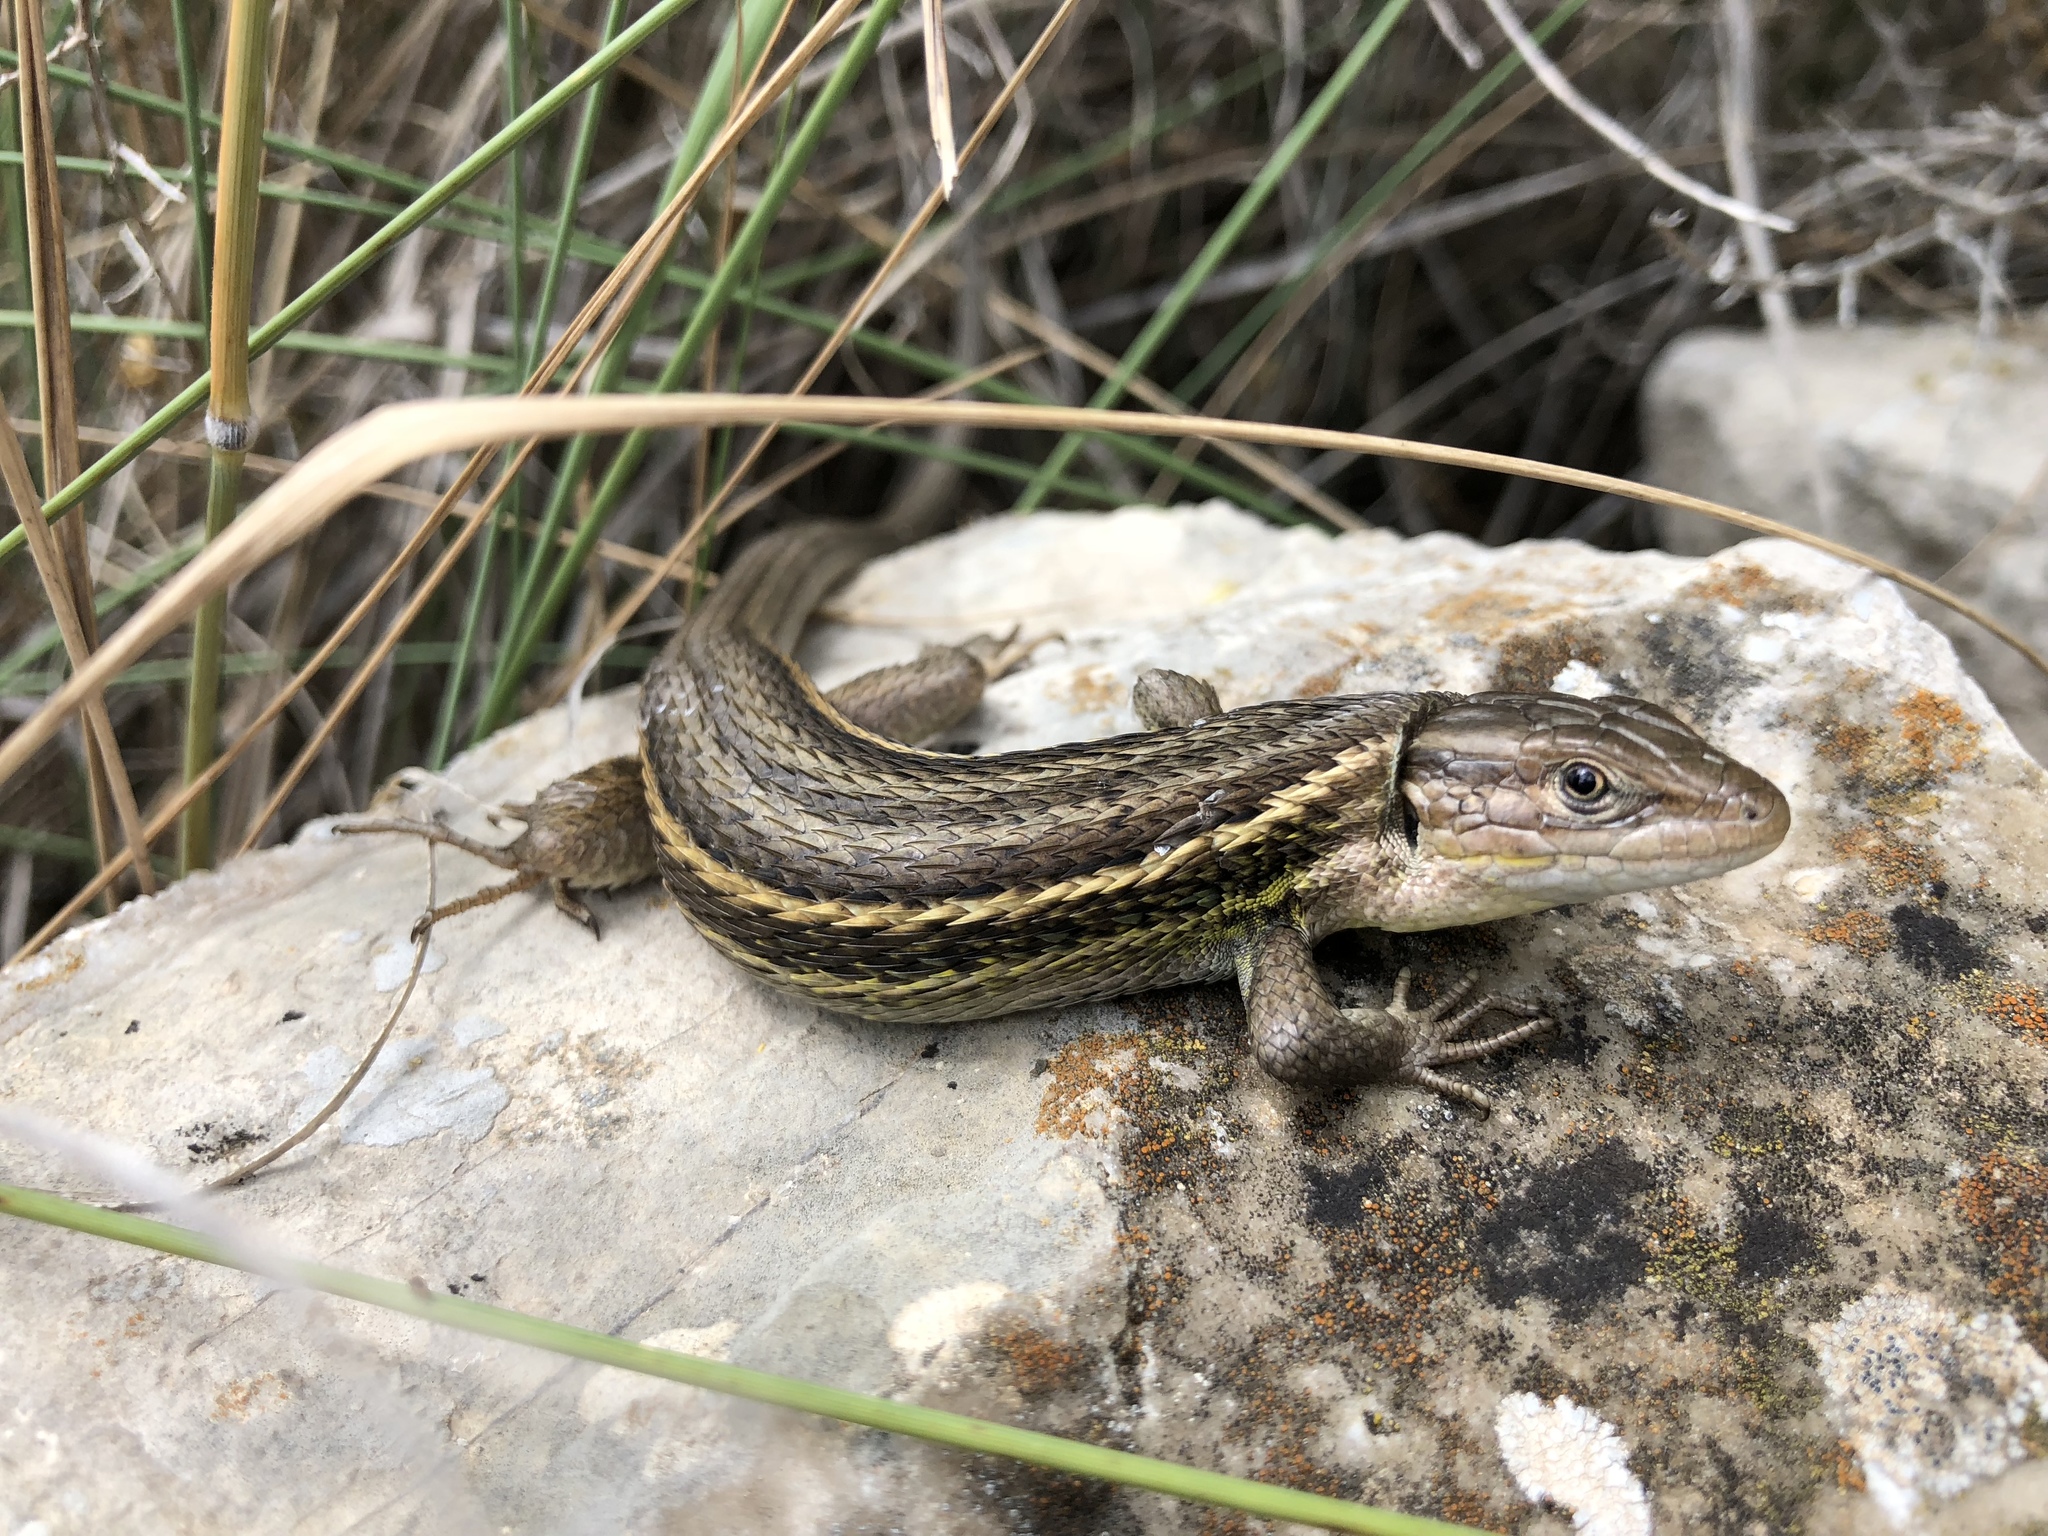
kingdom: Animalia
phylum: Chordata
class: Squamata
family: Lacertidae
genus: Psammodromus
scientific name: Psammodromus algirus
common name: Algerian psammodromus
